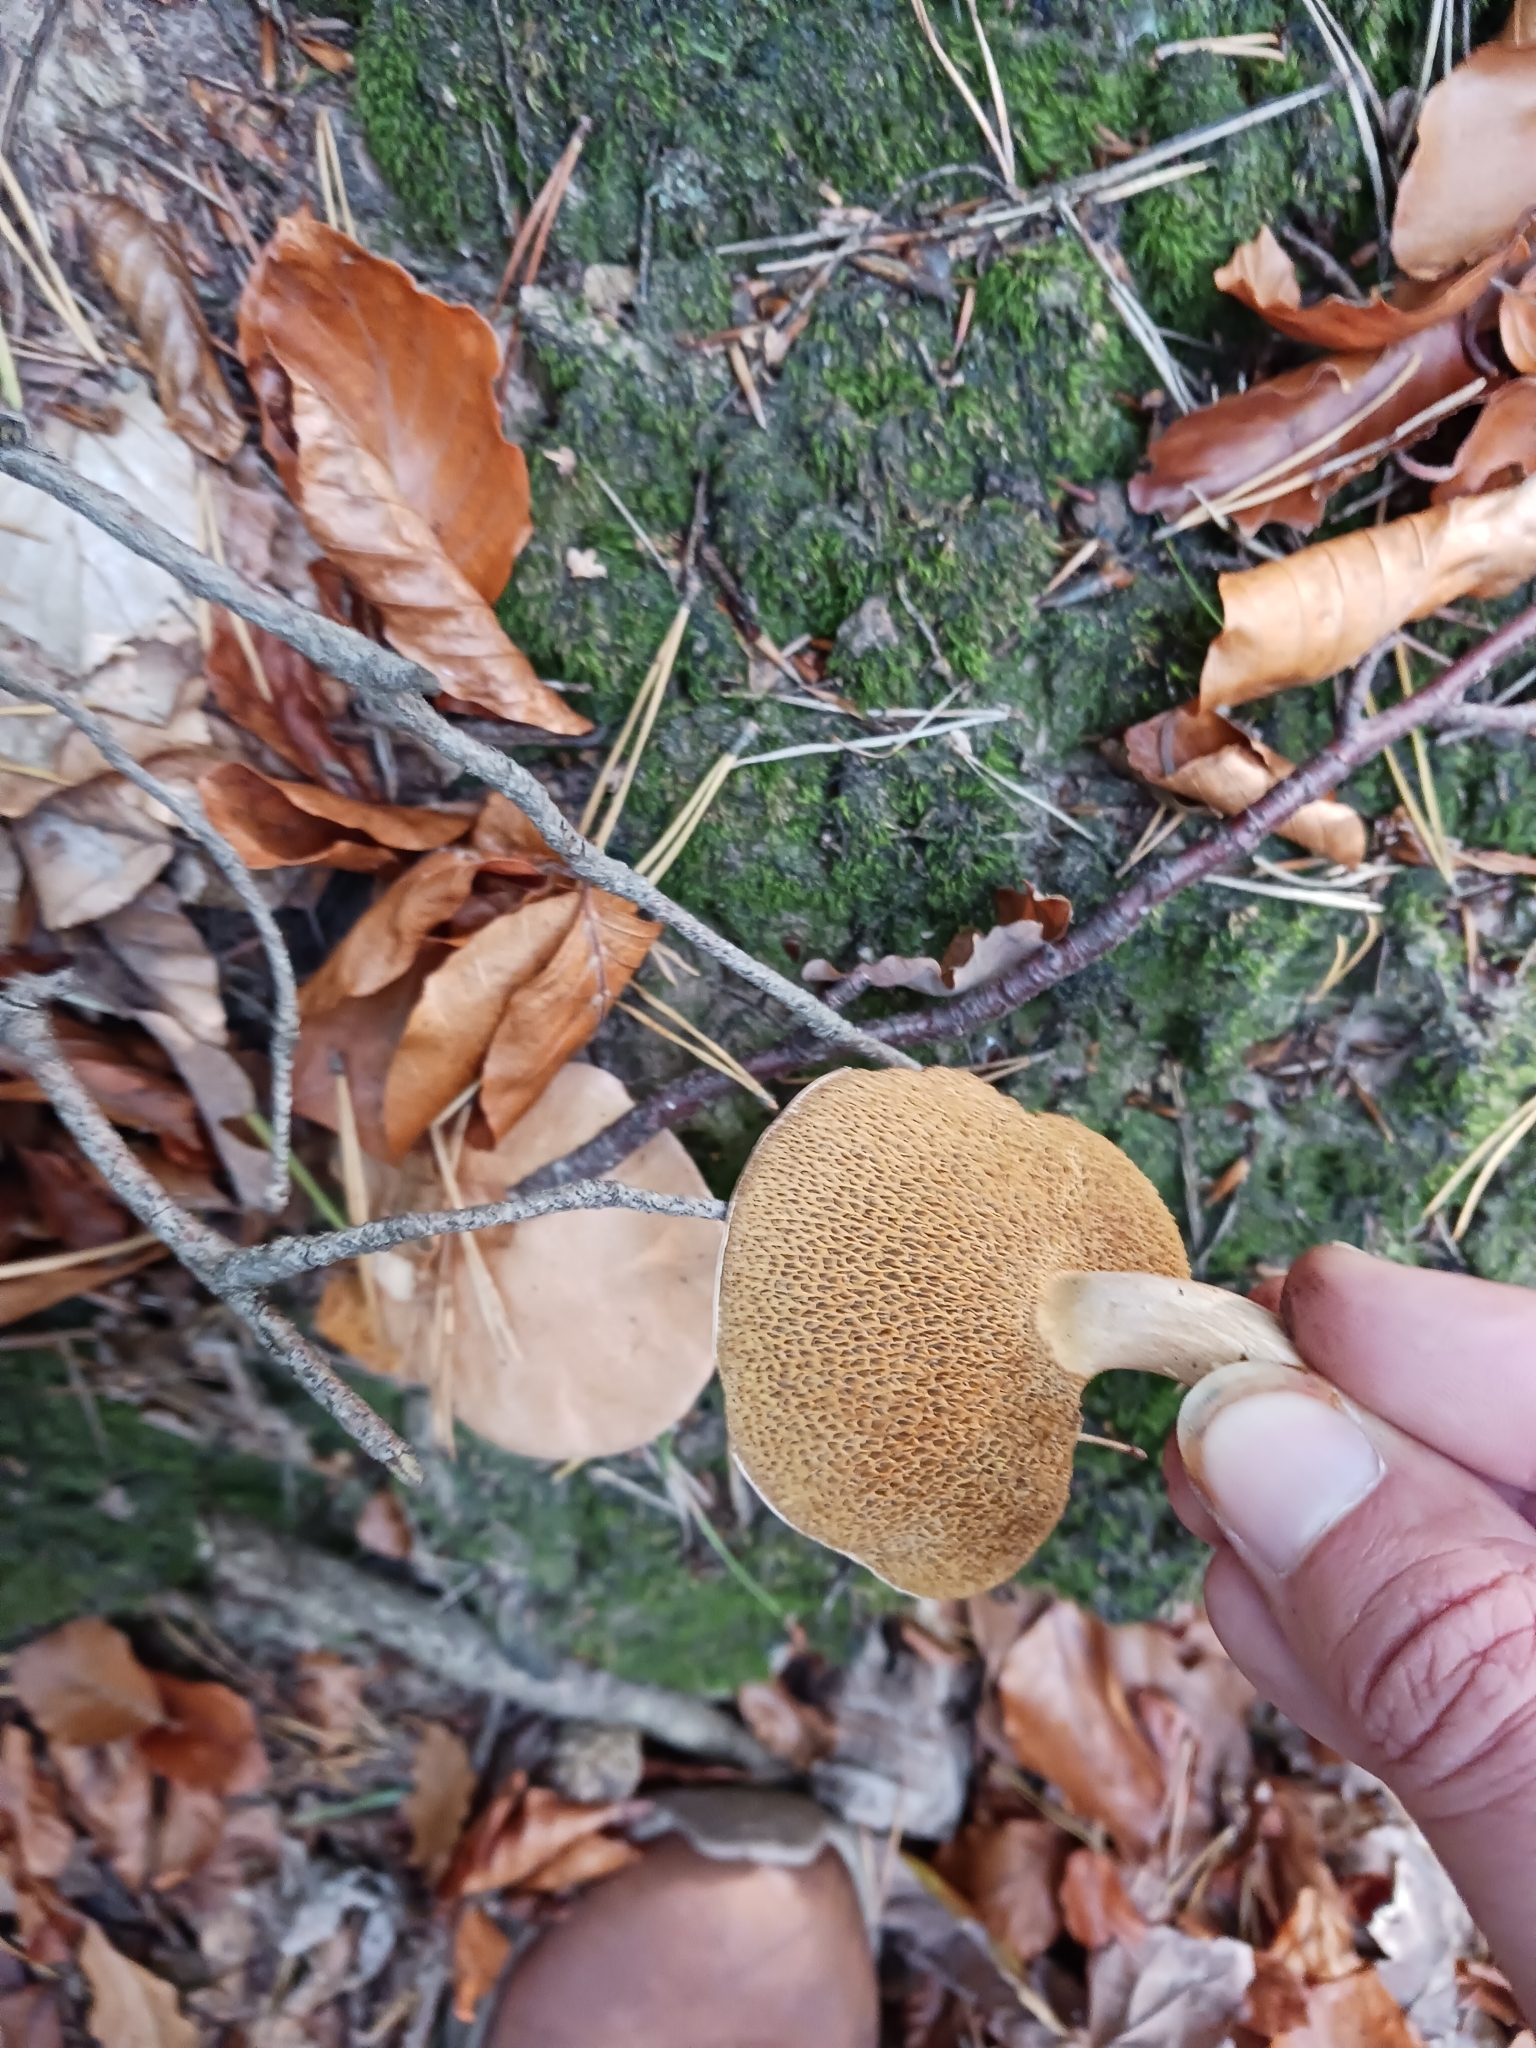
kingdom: Fungi
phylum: Basidiomycota
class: Agaricomycetes
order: Boletales
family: Suillaceae
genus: Suillus
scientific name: Suillus bovinus
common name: Bovine bolete
